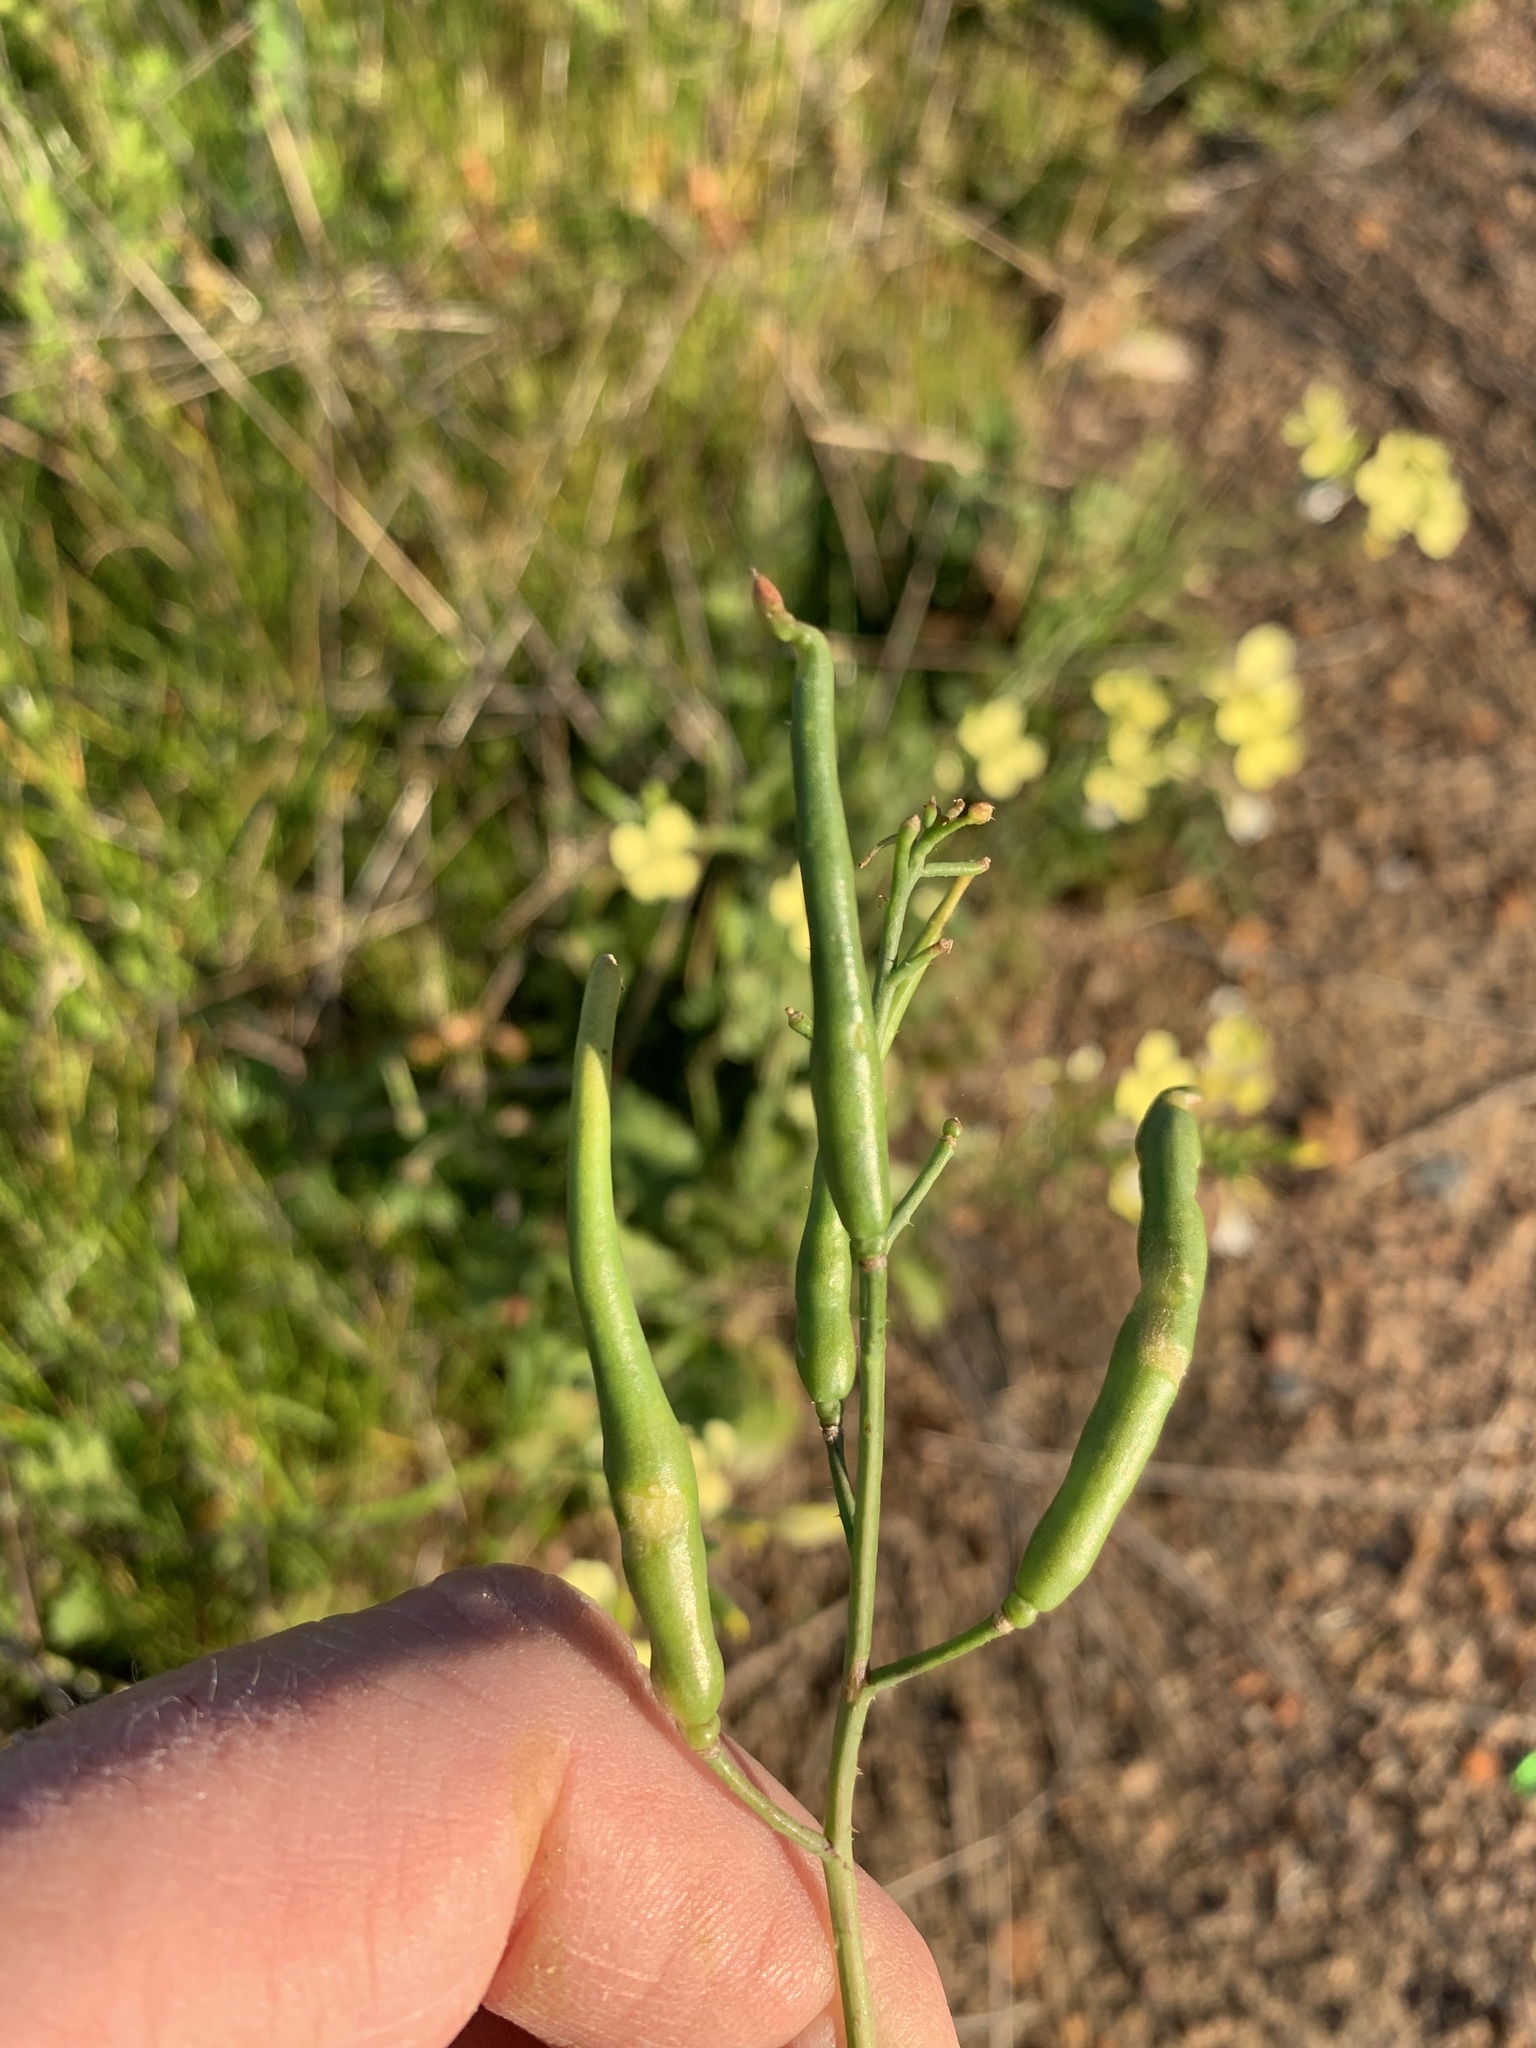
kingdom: Plantae
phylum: Tracheophyta
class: Magnoliopsida
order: Brassicales
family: Brassicaceae
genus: Raphanus
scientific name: Raphanus raphanistrum
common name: Wild radish
